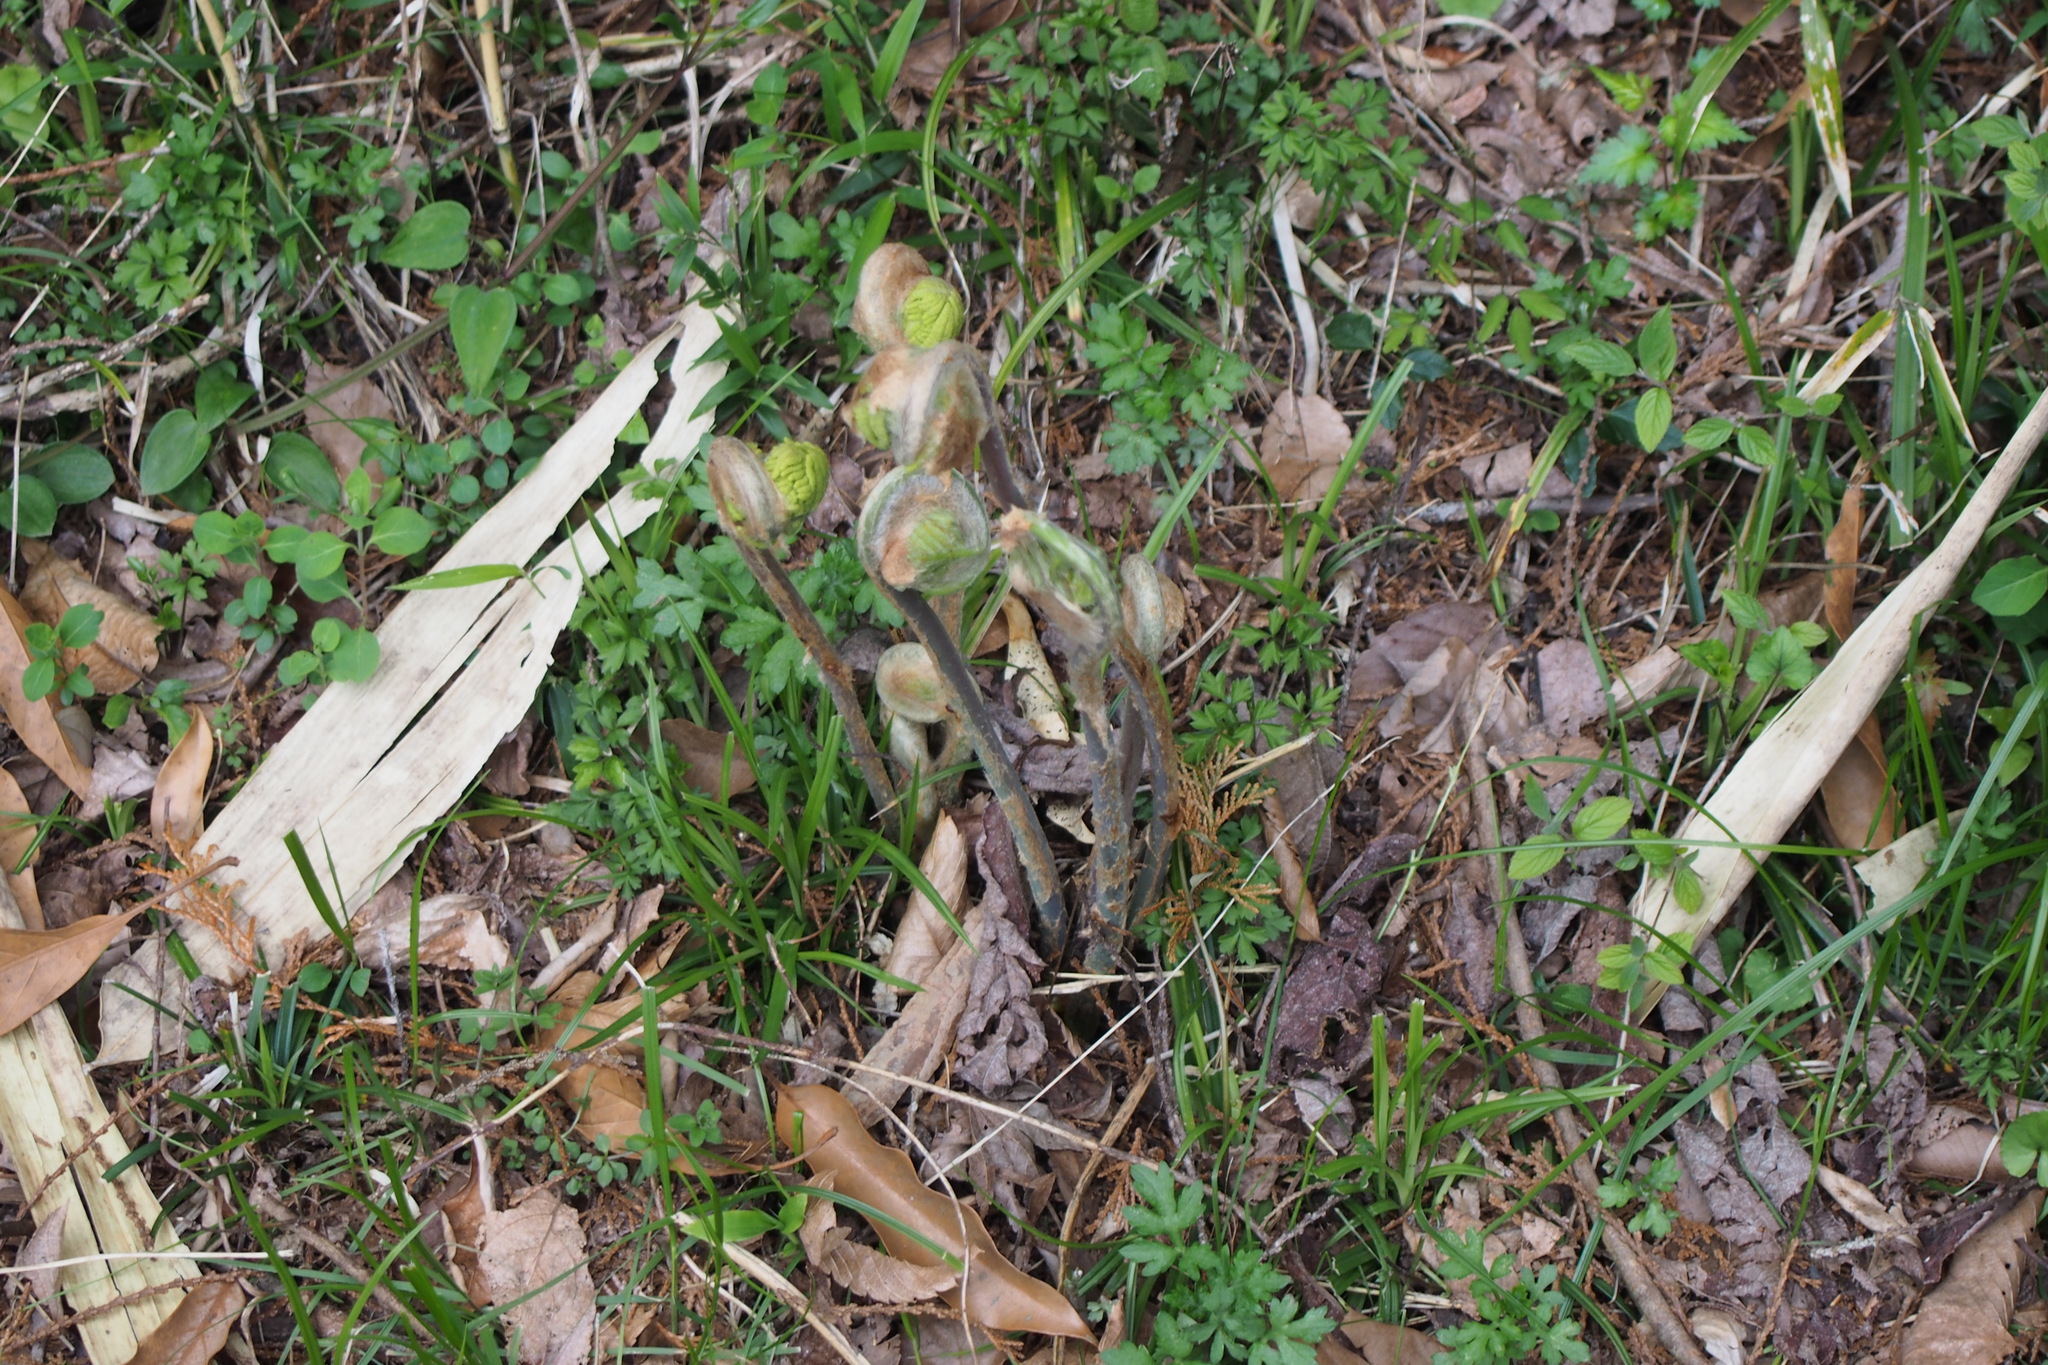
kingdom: Plantae
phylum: Tracheophyta
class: Polypodiopsida
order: Osmundales
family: Osmundaceae
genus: Osmunda
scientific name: Osmunda japonica
